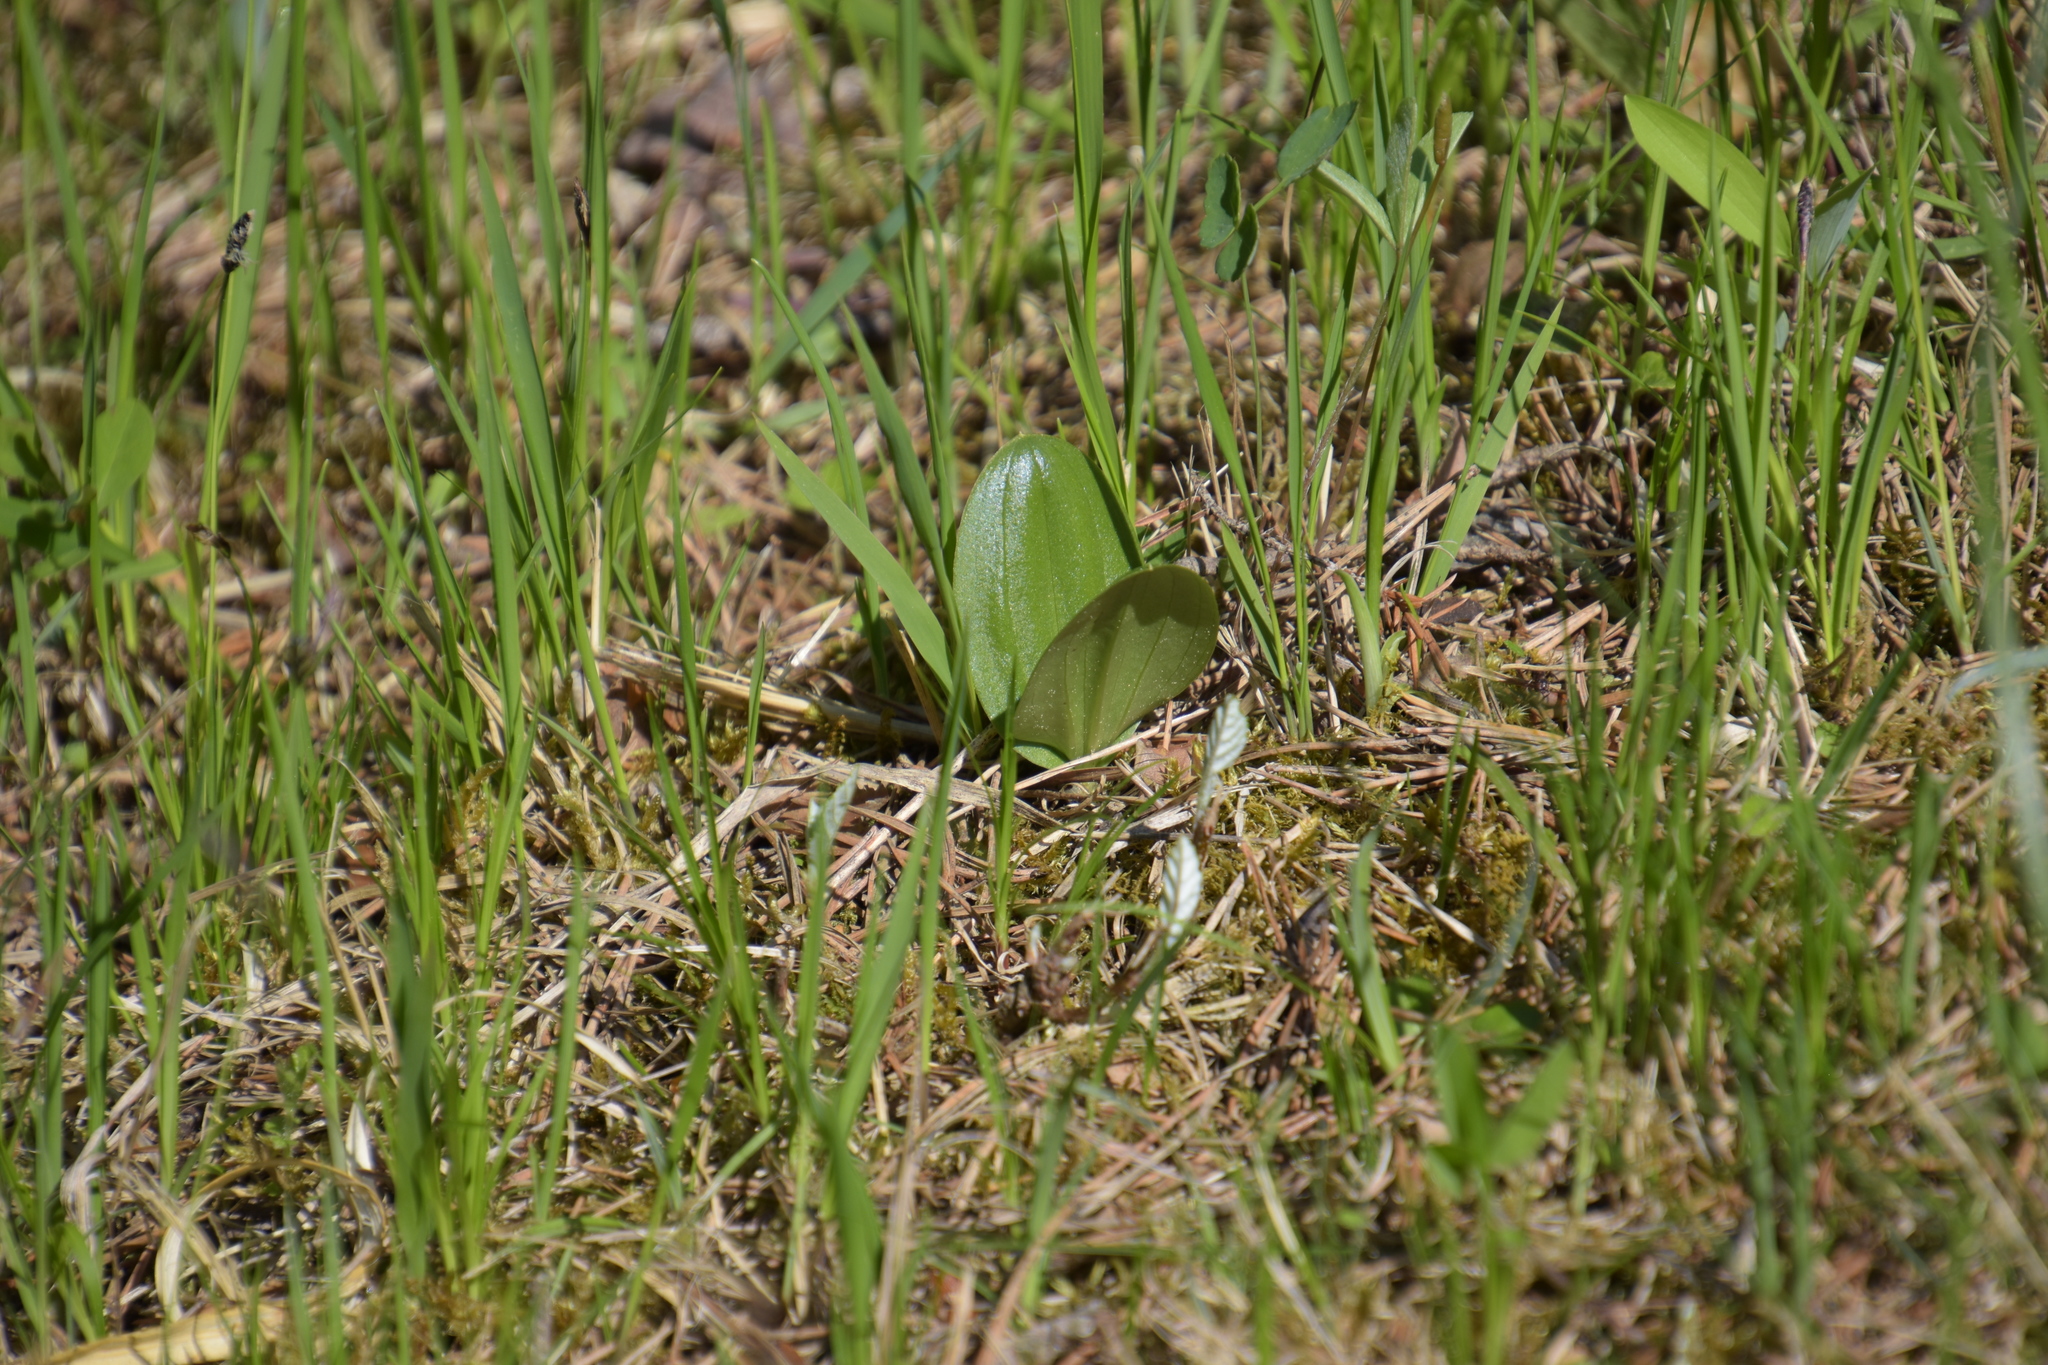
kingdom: Plantae
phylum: Tracheophyta
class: Liliopsida
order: Asparagales
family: Orchidaceae
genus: Neottia
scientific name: Neottia ovata
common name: Common twayblade
